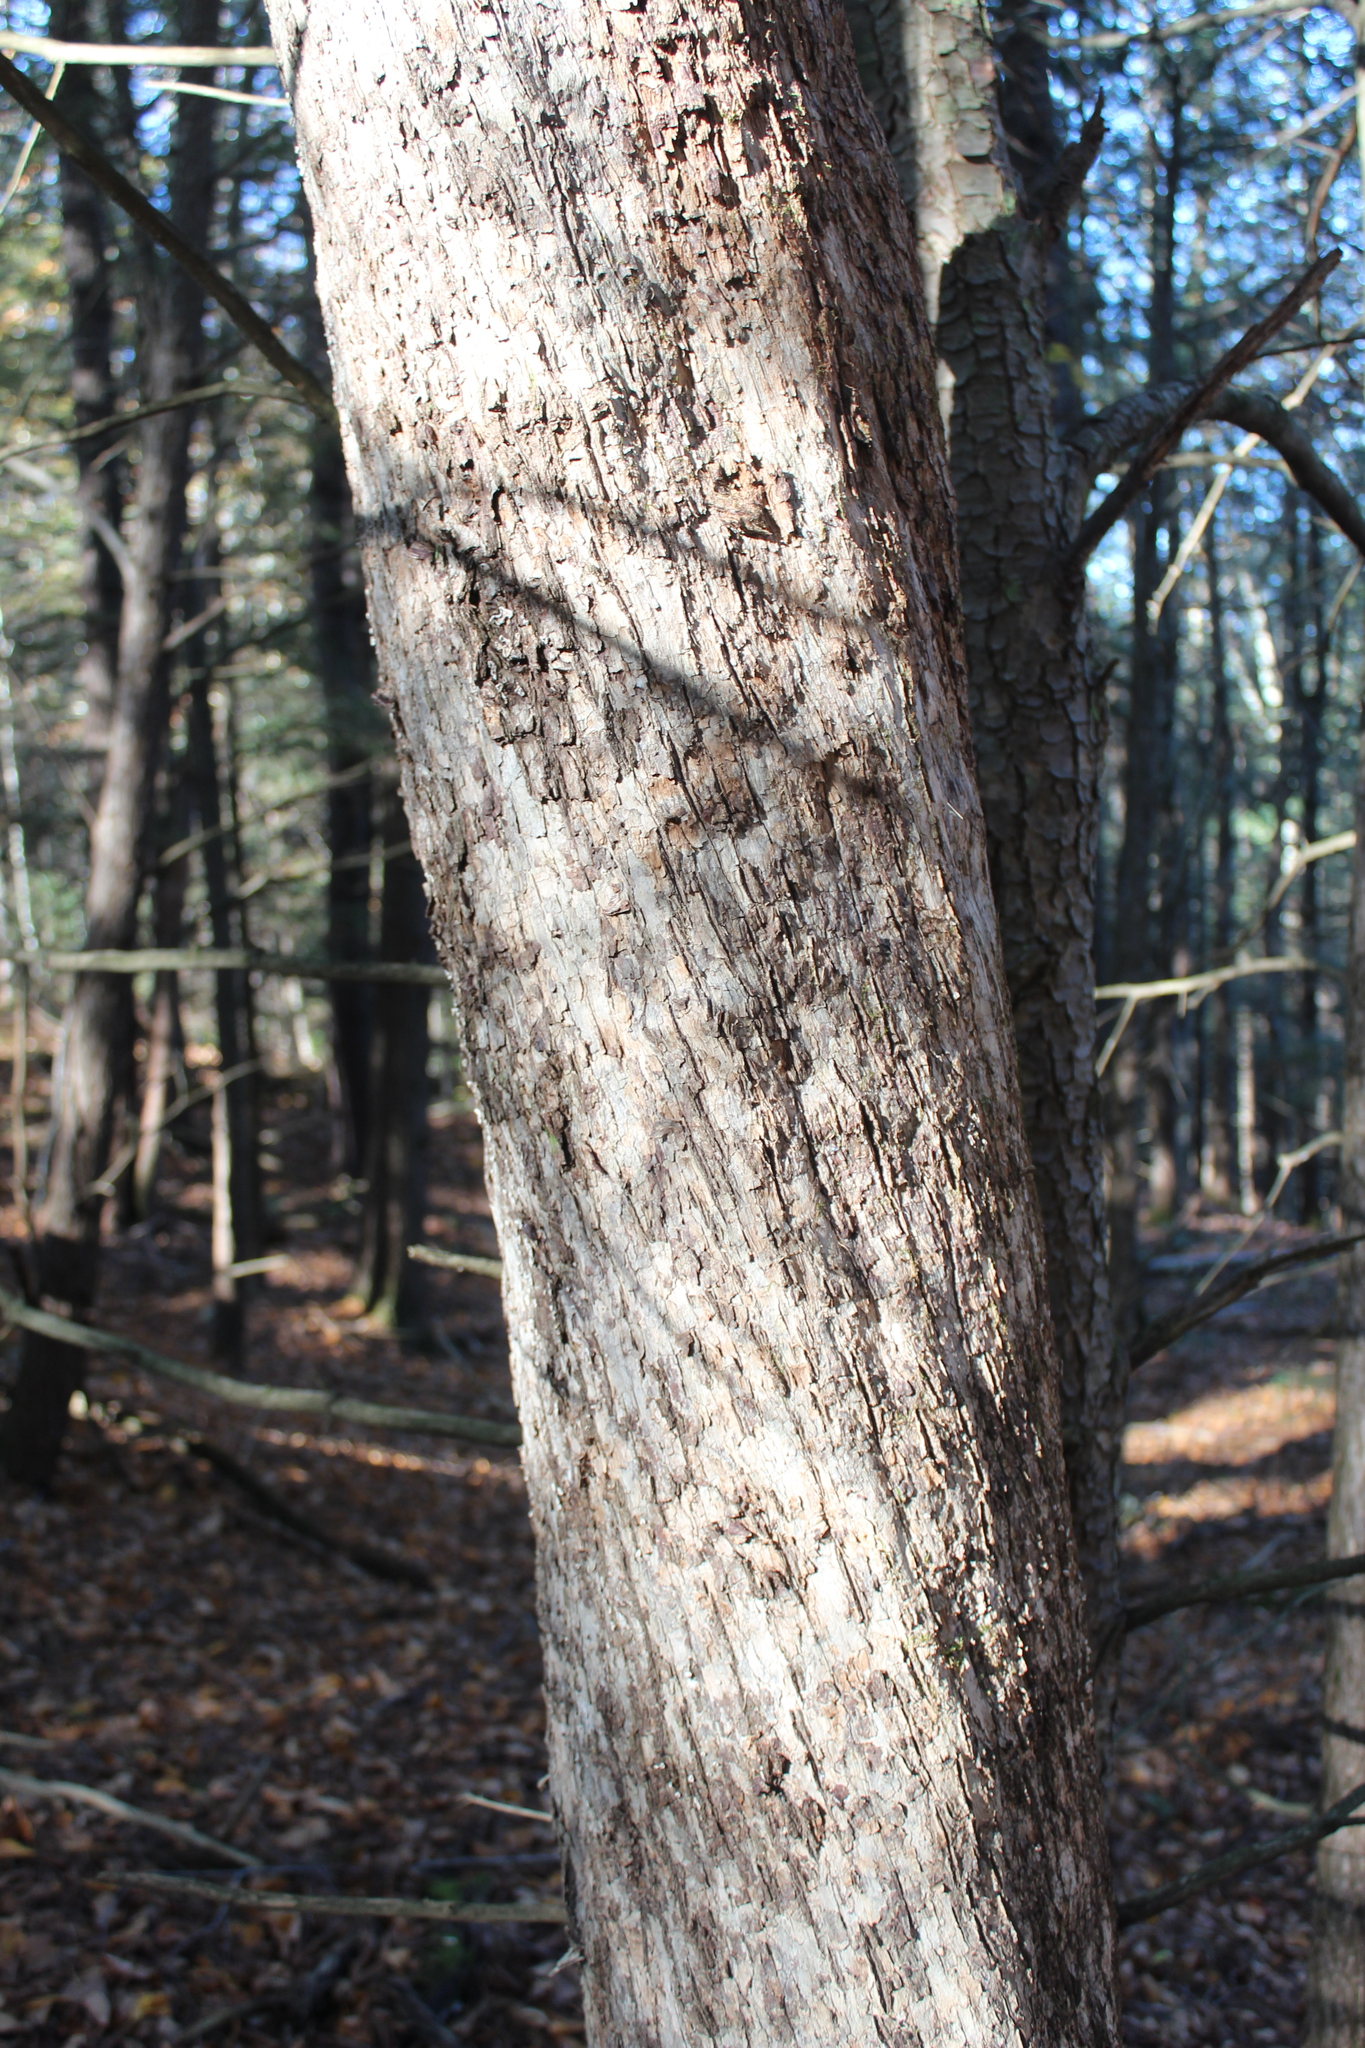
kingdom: Plantae
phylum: Tracheophyta
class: Magnoliopsida
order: Fagales
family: Betulaceae
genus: Ostrya
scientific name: Ostrya virginiana
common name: Ironwood
